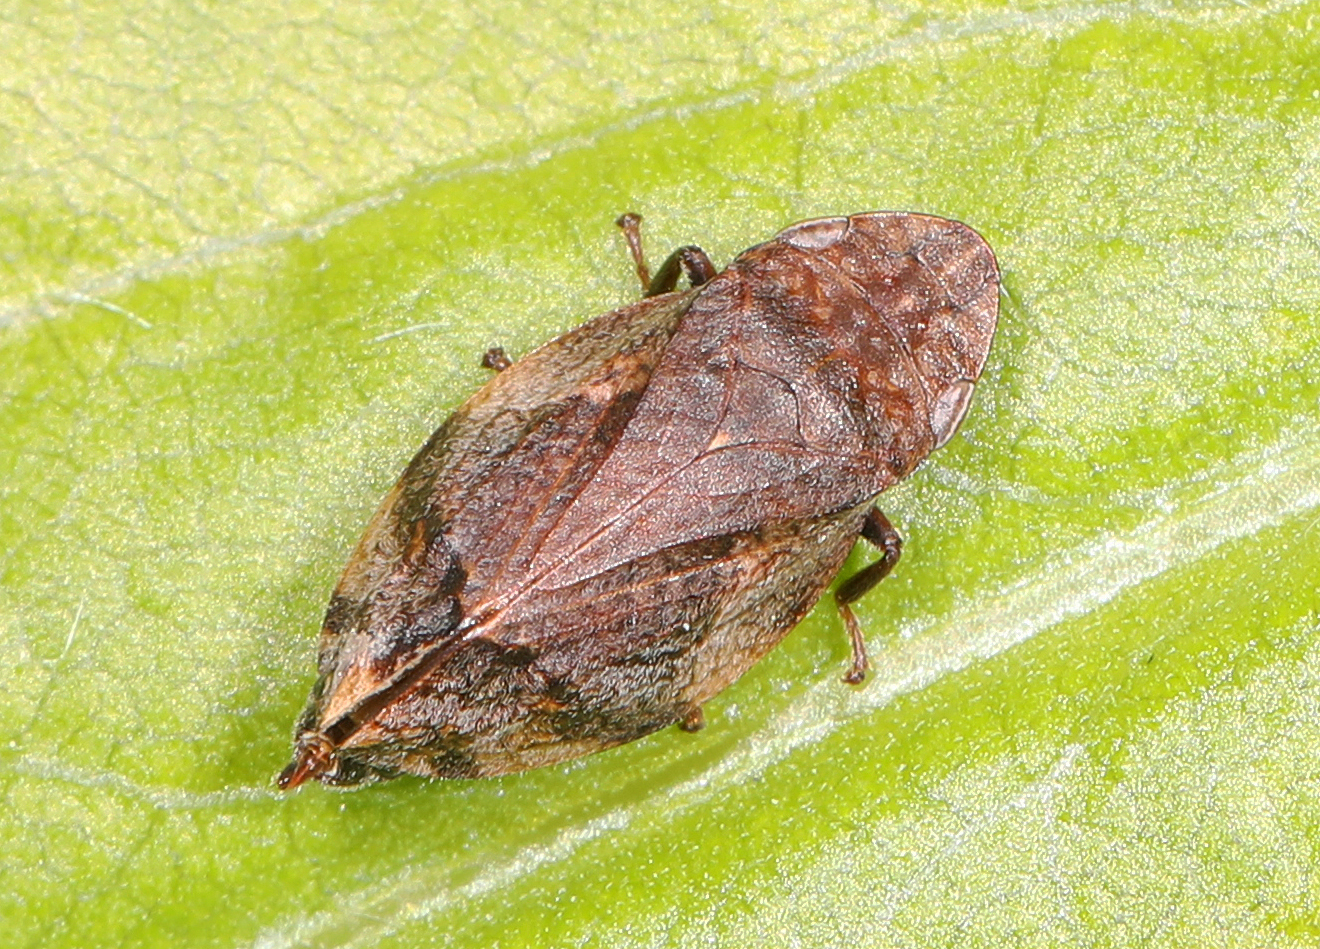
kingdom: Animalia
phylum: Arthropoda
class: Insecta
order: Hemiptera
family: Aphrophoridae
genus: Lepyronia
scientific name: Lepyronia quadrangularis
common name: Diamond-backed spittlebug
